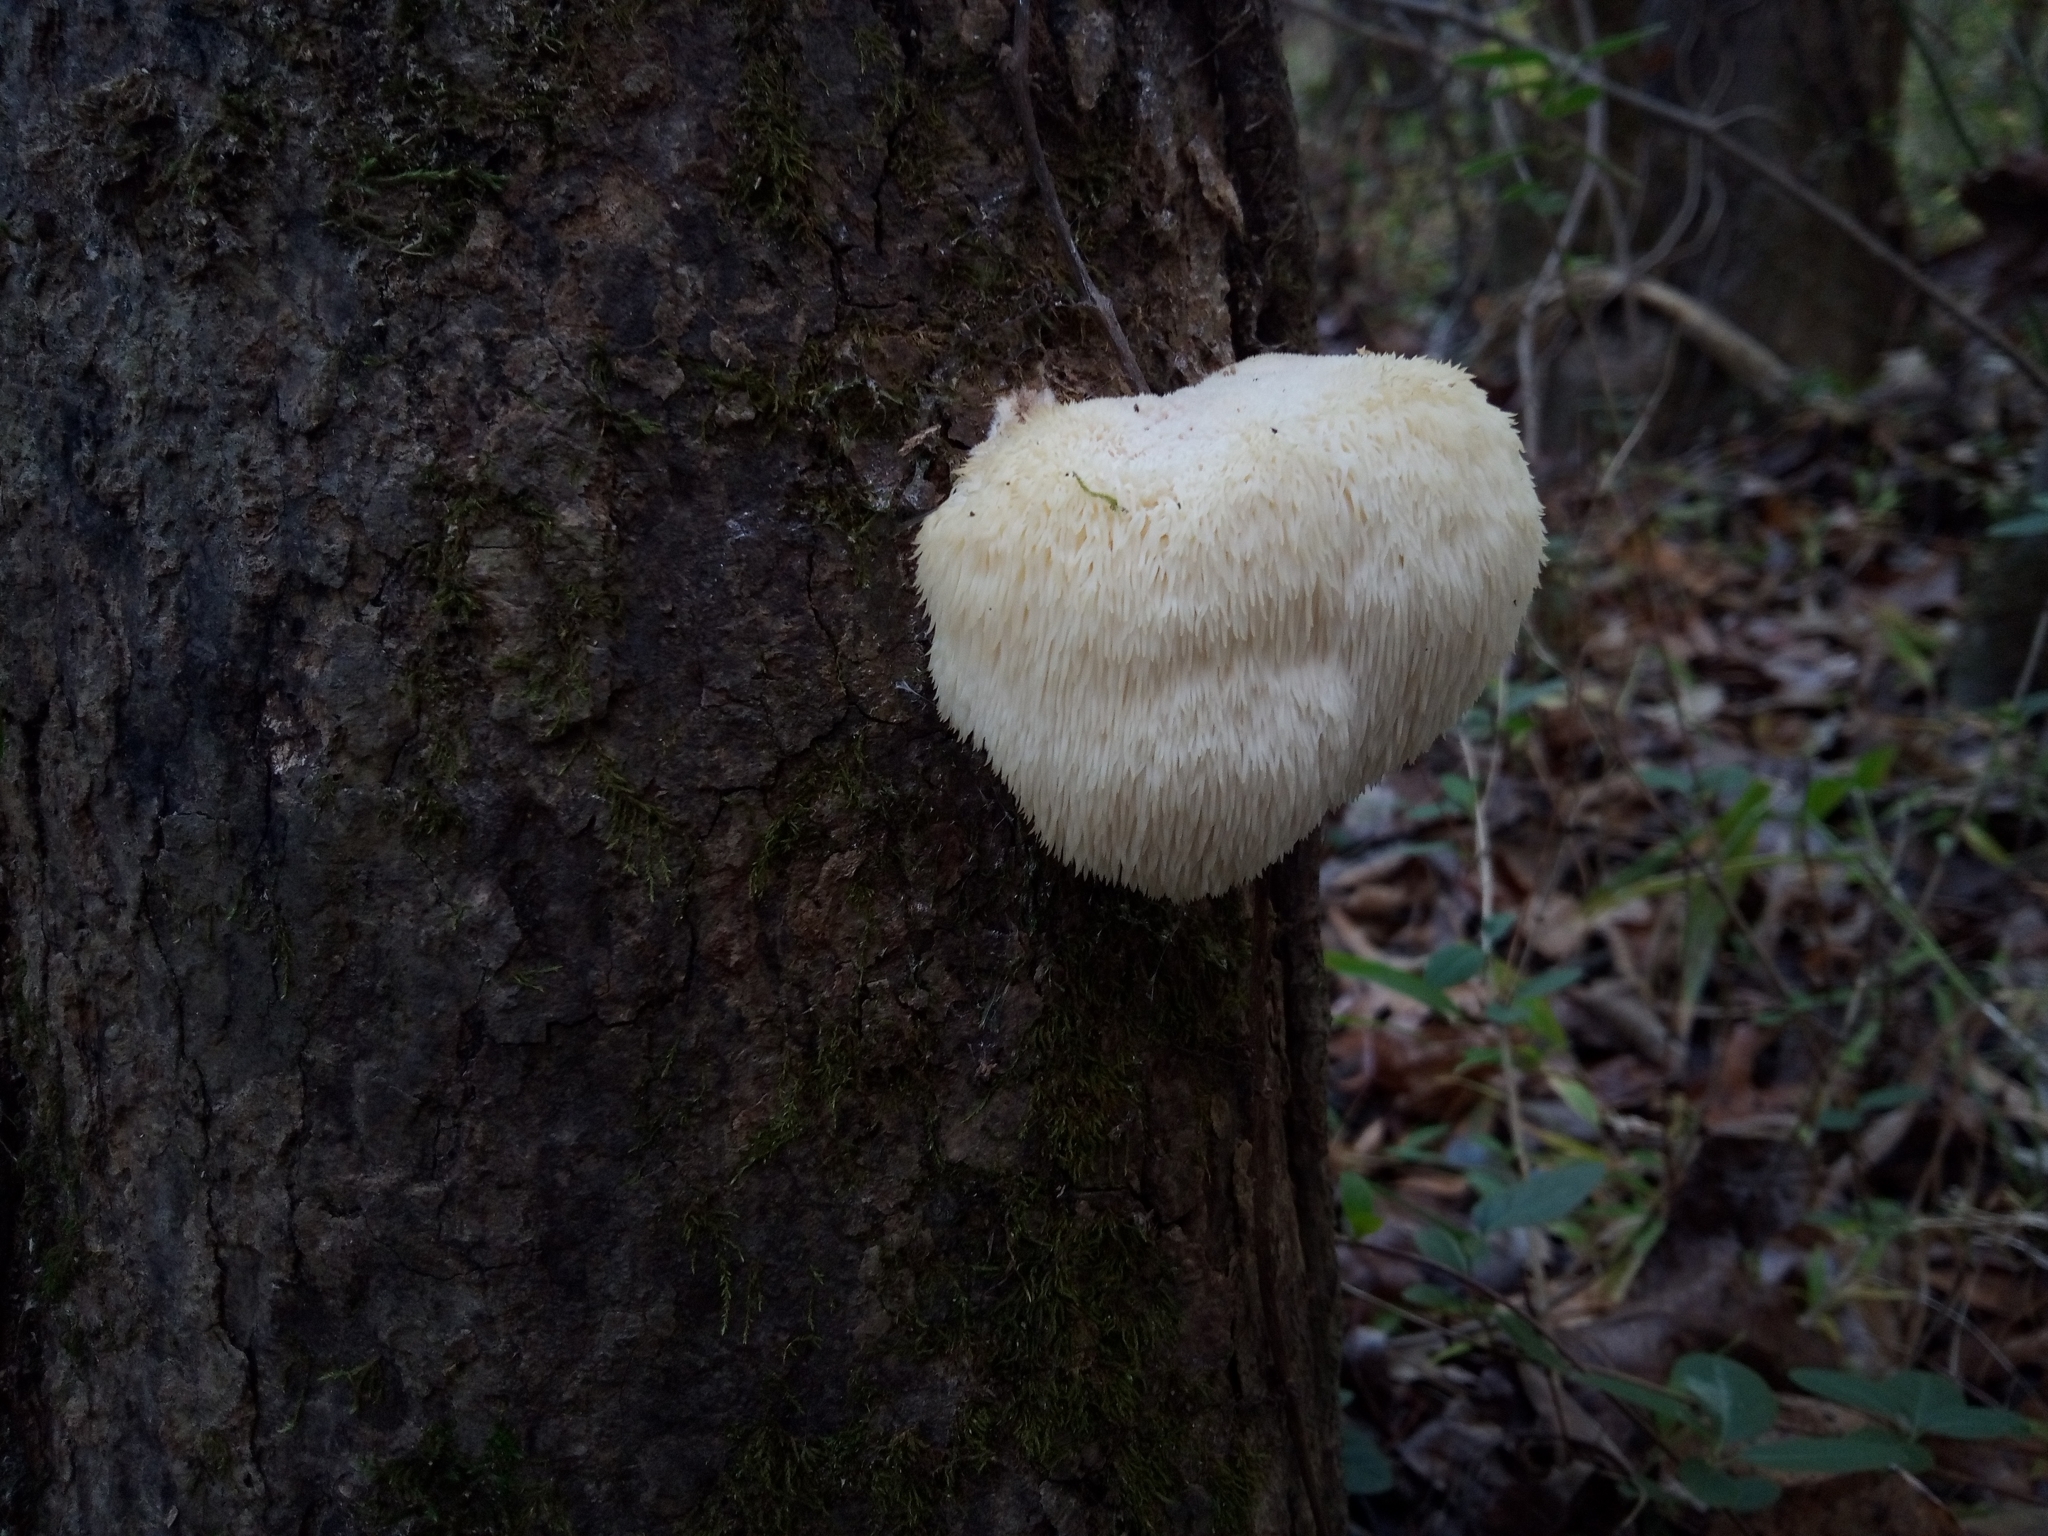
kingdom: Fungi
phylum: Basidiomycota
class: Agaricomycetes
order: Russulales
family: Hericiaceae
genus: Hericium
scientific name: Hericium erinaceus
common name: Bearded tooth
